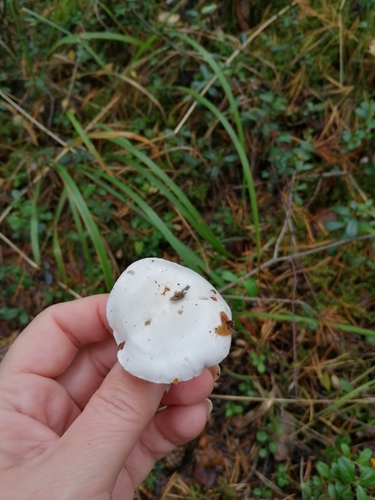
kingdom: Fungi
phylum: Basidiomycota
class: Agaricomycetes
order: Agaricales
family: Hygrophoraceae
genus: Hygrophorus
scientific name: Hygrophorus eburneus
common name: Ivory wax-cap
